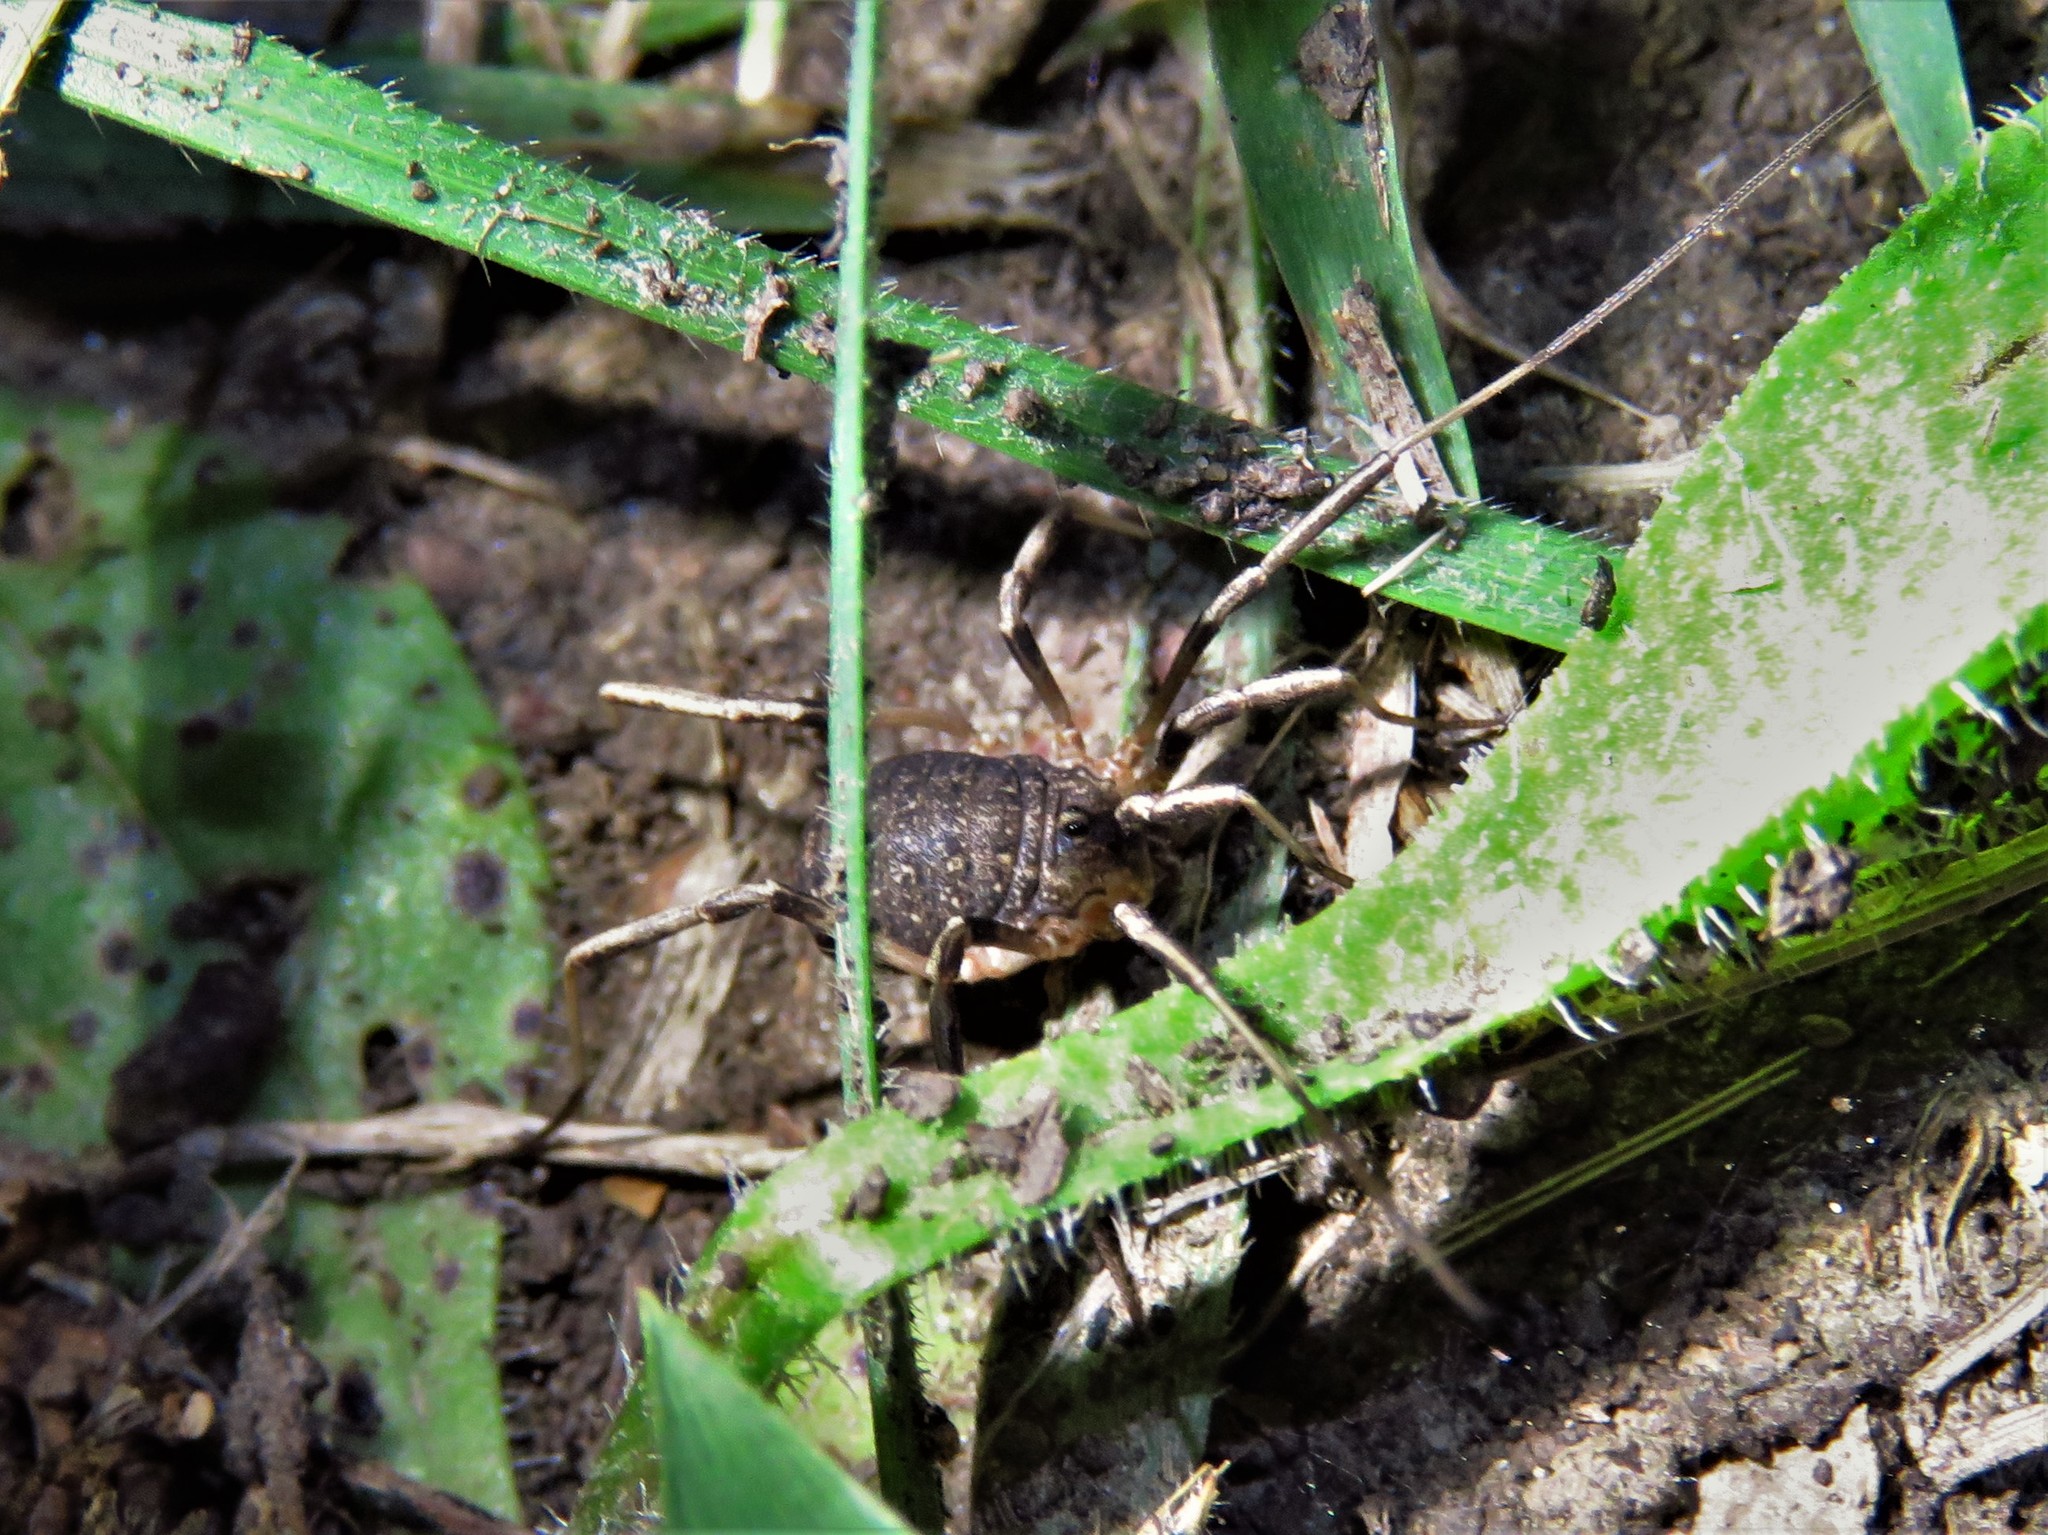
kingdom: Animalia
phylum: Arthropoda
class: Arachnida
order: Opiliones
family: Sclerosomatidae
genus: Eumesosoma
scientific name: Eumesosoma roeweri
